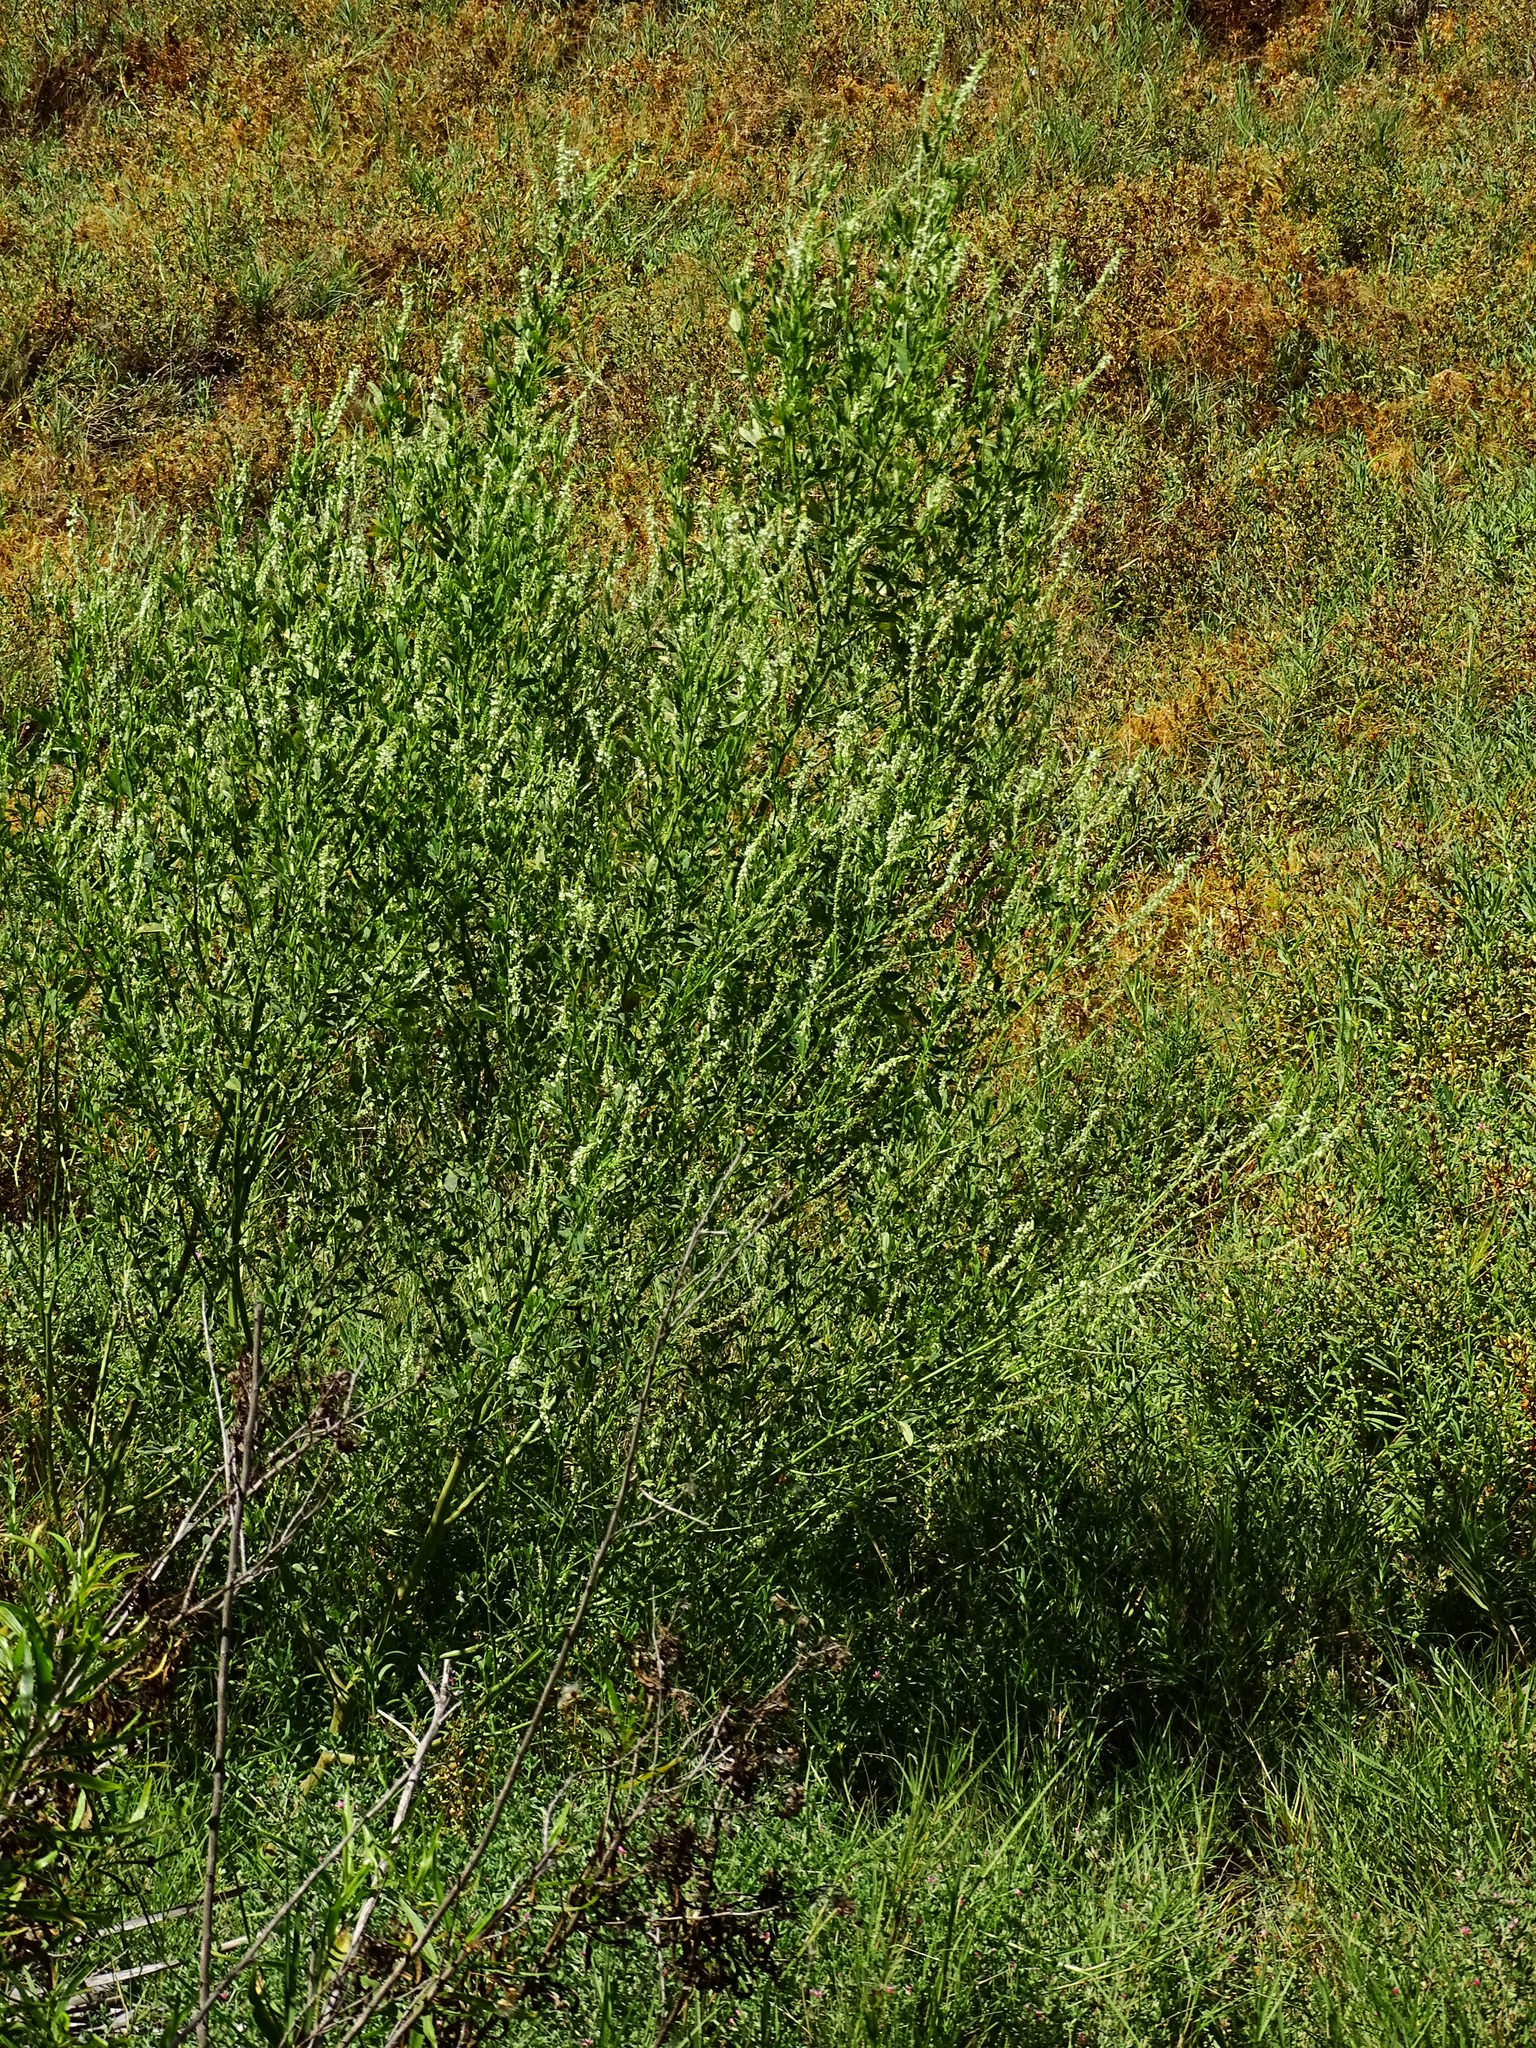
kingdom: Plantae
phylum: Tracheophyta
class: Magnoliopsida
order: Fabales
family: Fabaceae
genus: Melilotus
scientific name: Melilotus albus
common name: White melilot
